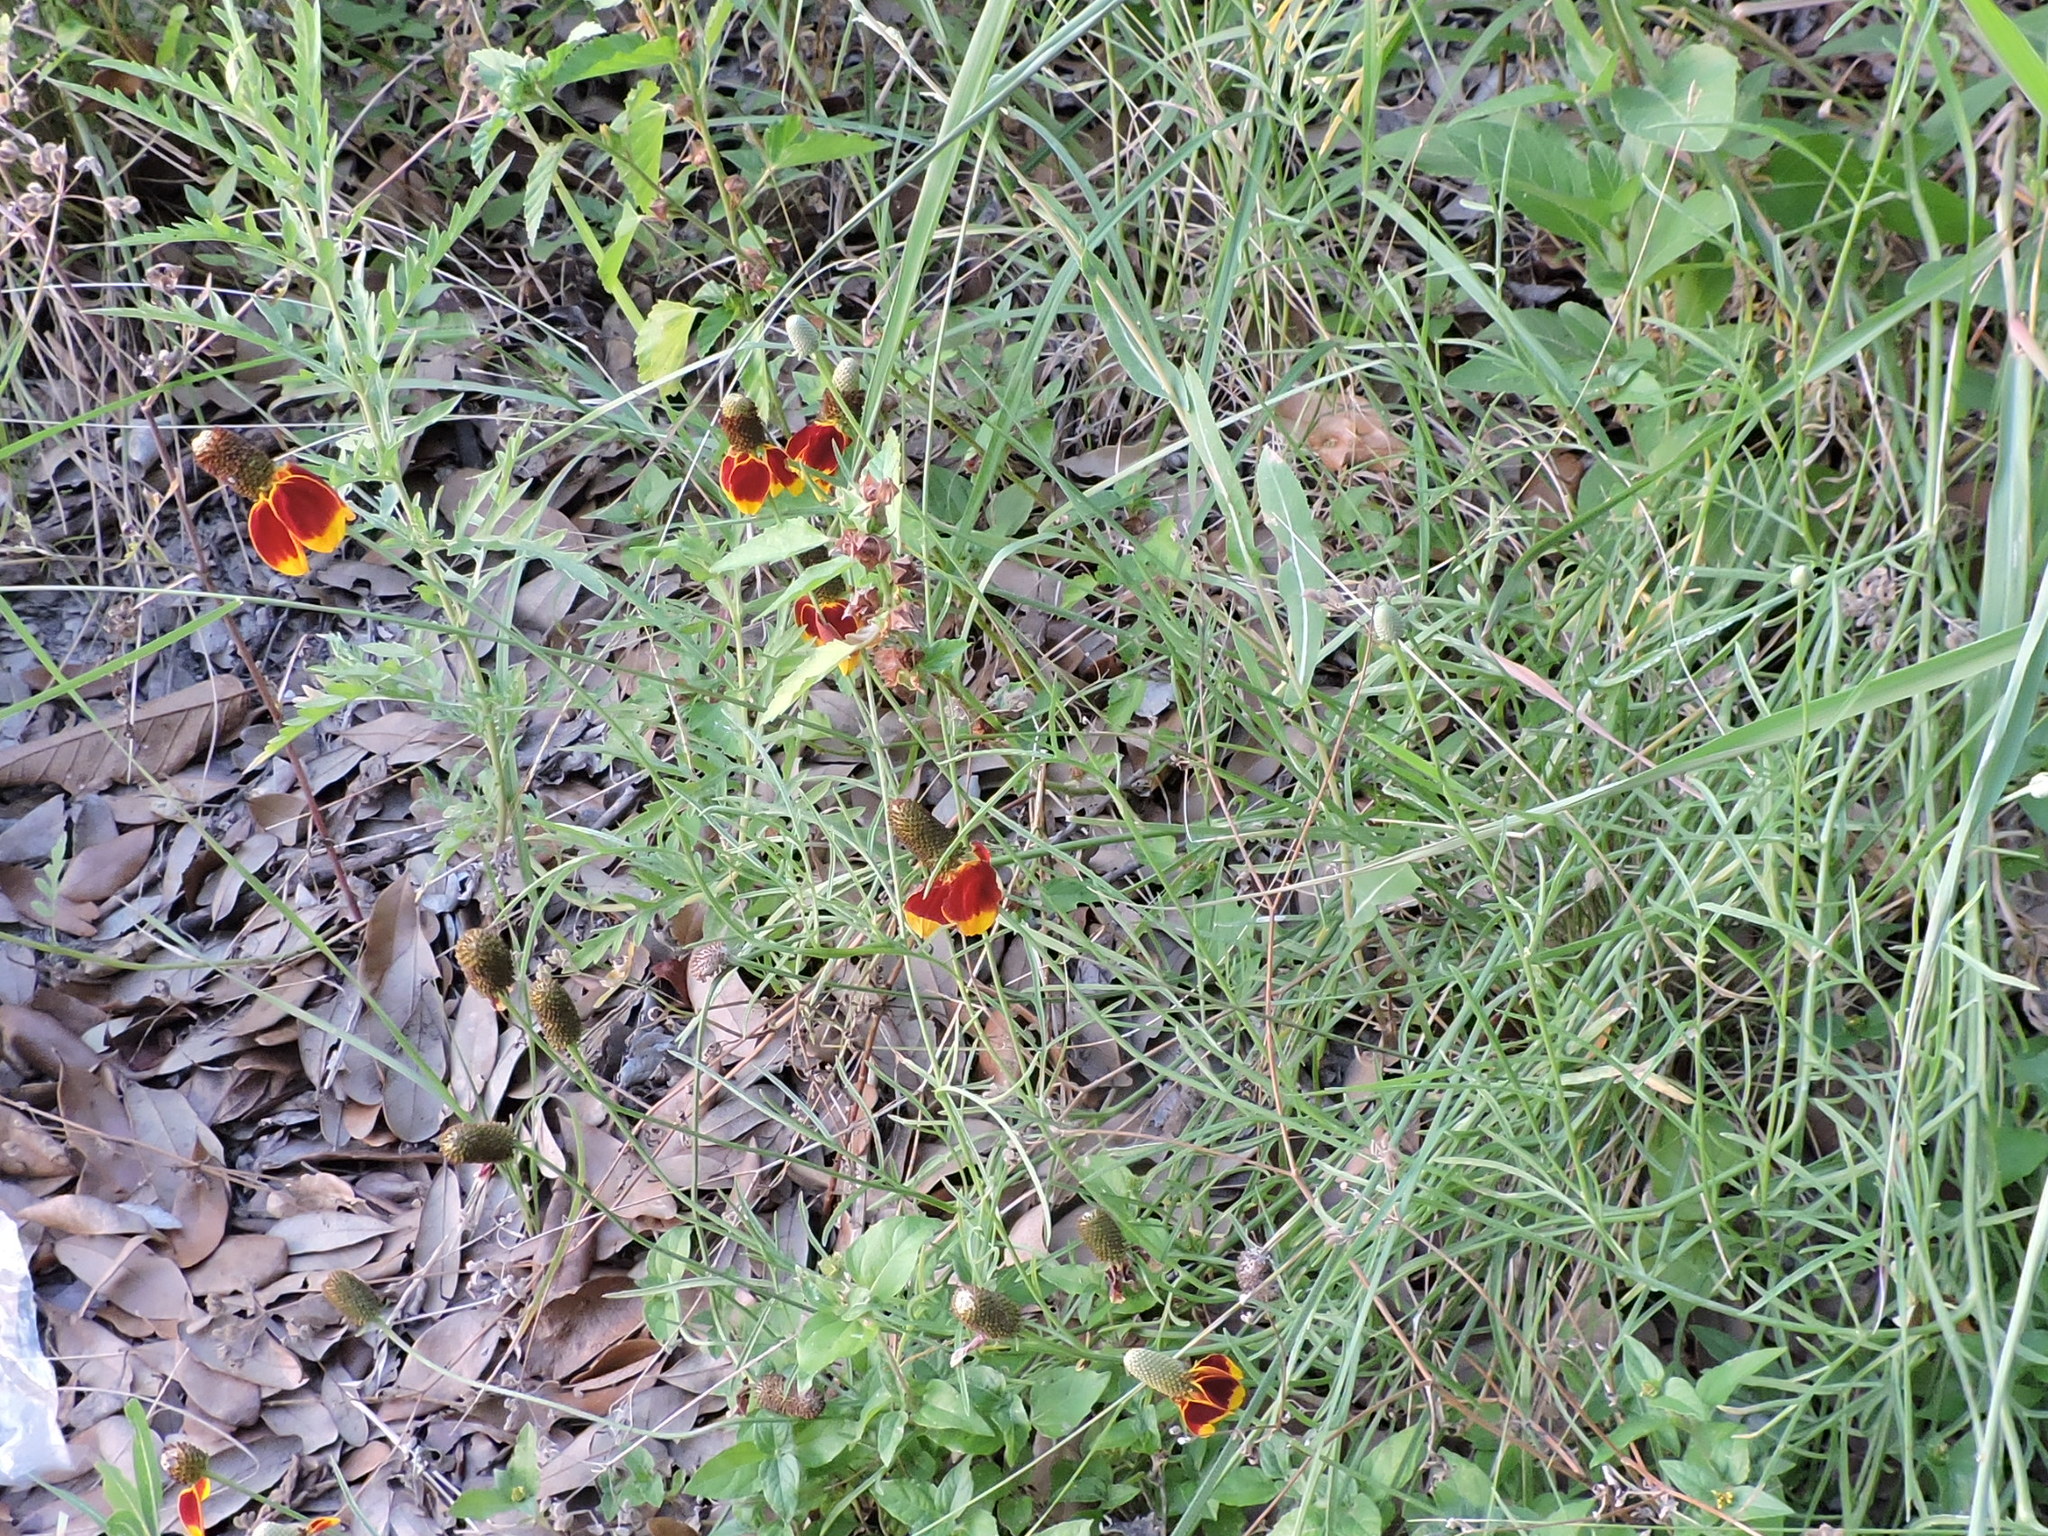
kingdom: Plantae
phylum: Tracheophyta
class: Magnoliopsida
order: Asterales
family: Asteraceae
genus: Ratibida
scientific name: Ratibida columnifera
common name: Prairie coneflower
